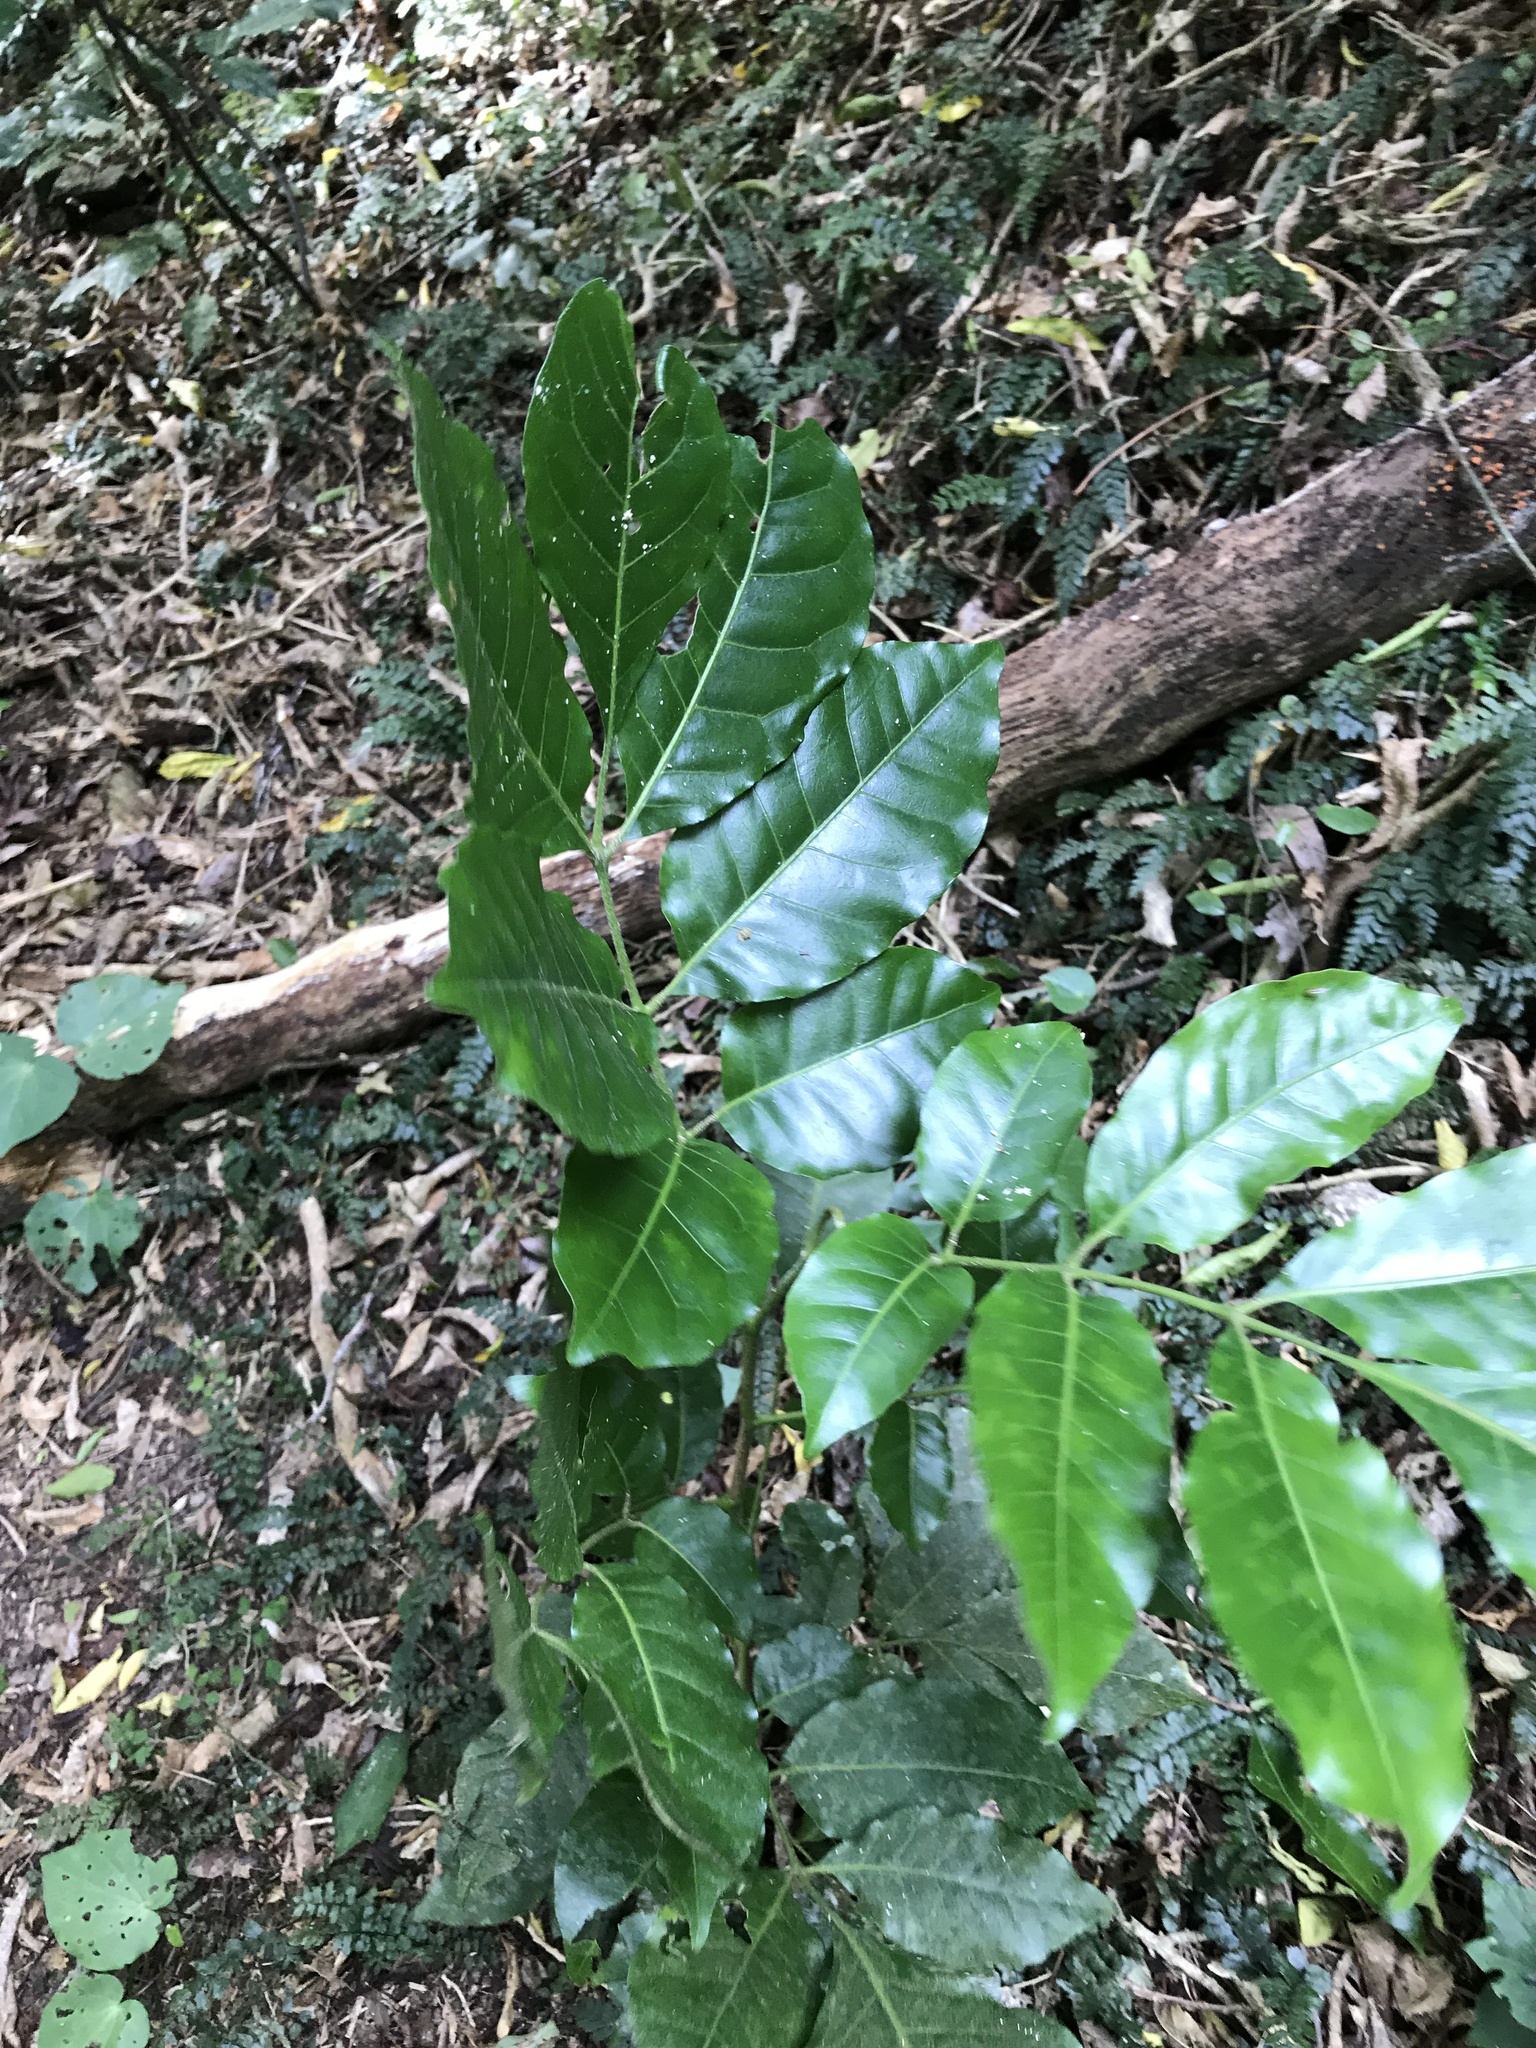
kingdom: Plantae
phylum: Tracheophyta
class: Magnoliopsida
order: Sapindales
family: Meliaceae
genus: Didymocheton
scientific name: Didymocheton spectabilis
